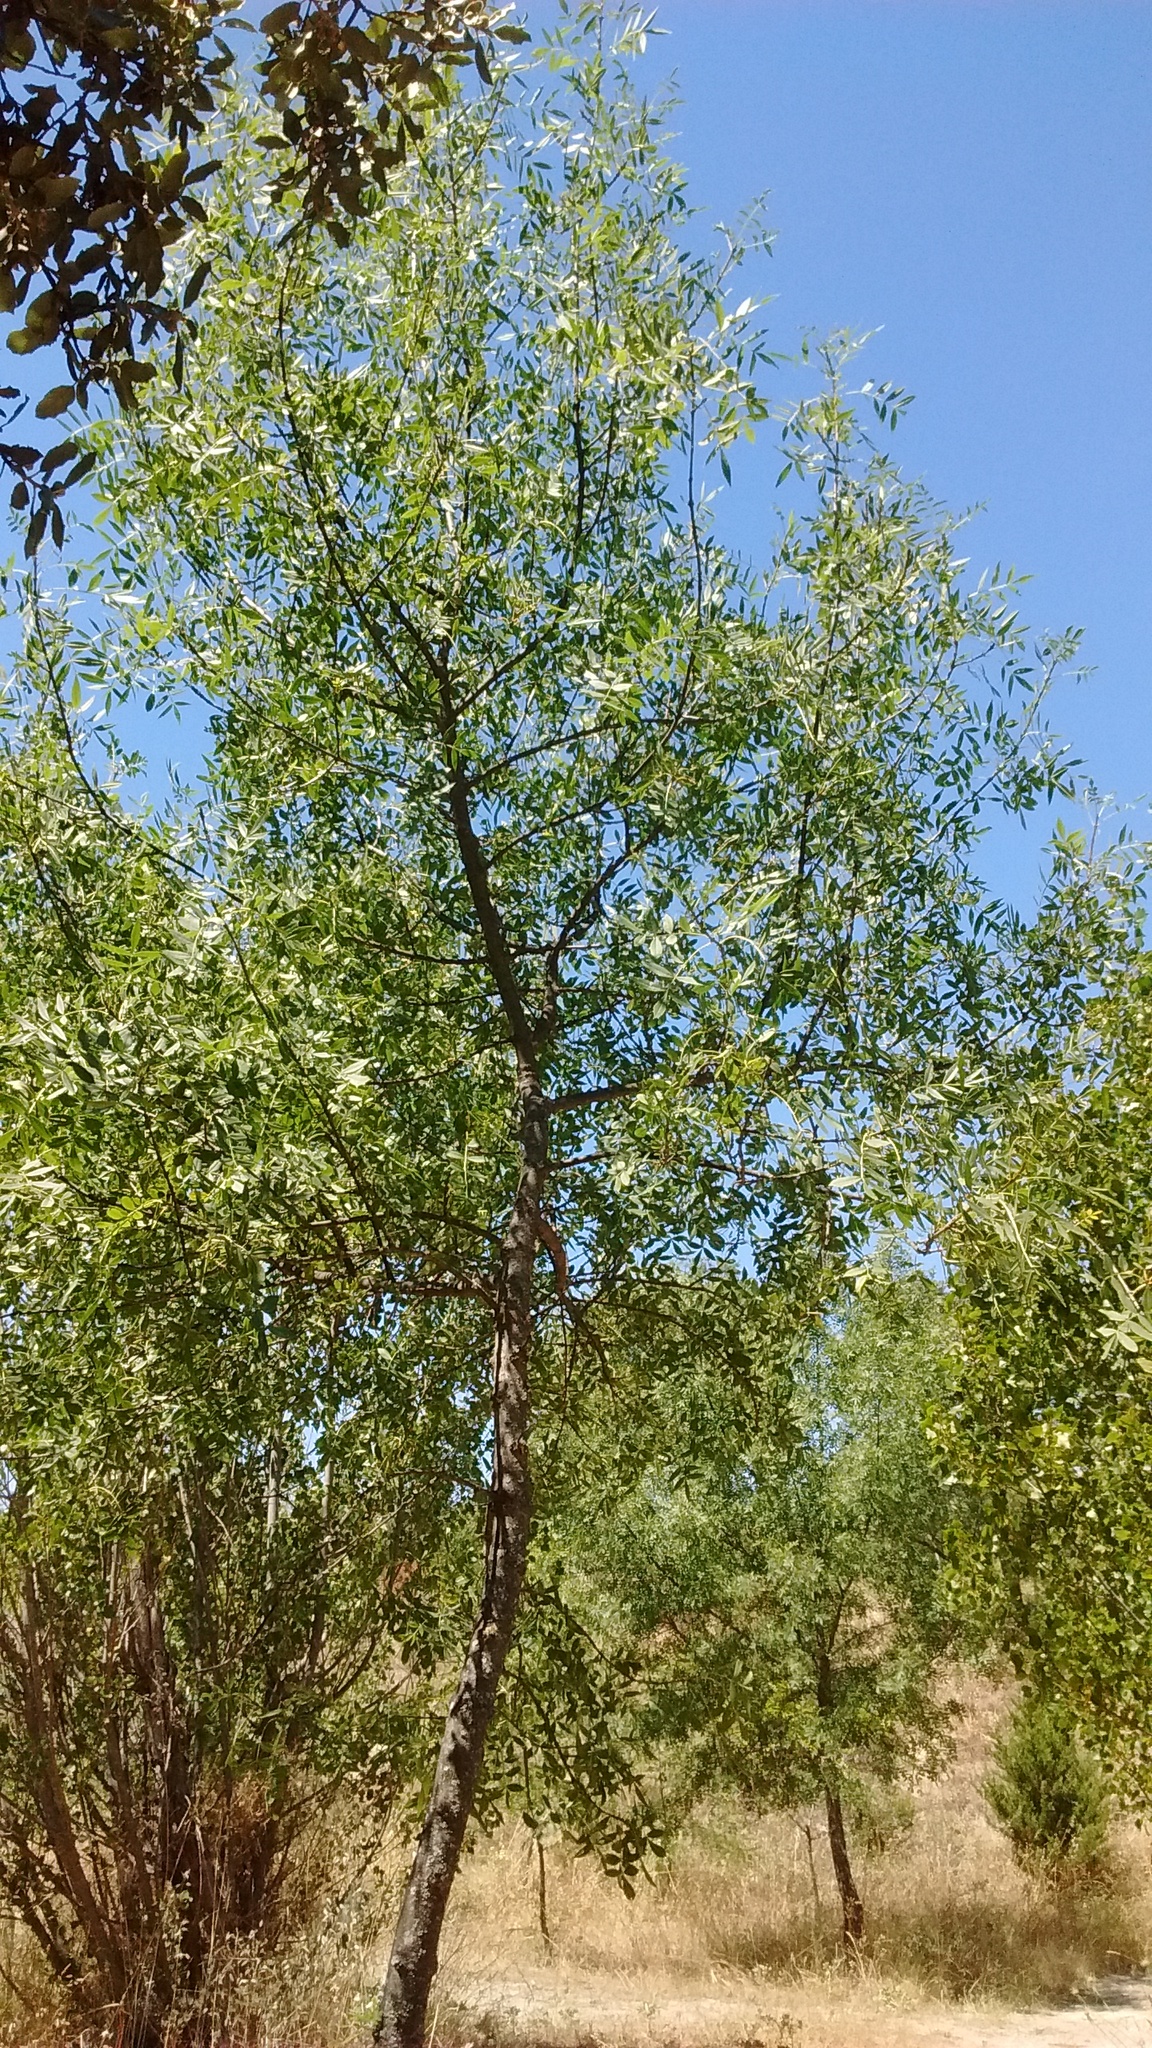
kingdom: Plantae
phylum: Tracheophyta
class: Magnoliopsida
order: Lamiales
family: Oleaceae
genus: Fraxinus
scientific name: Fraxinus angustifolia
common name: Narrow-leafed ash
